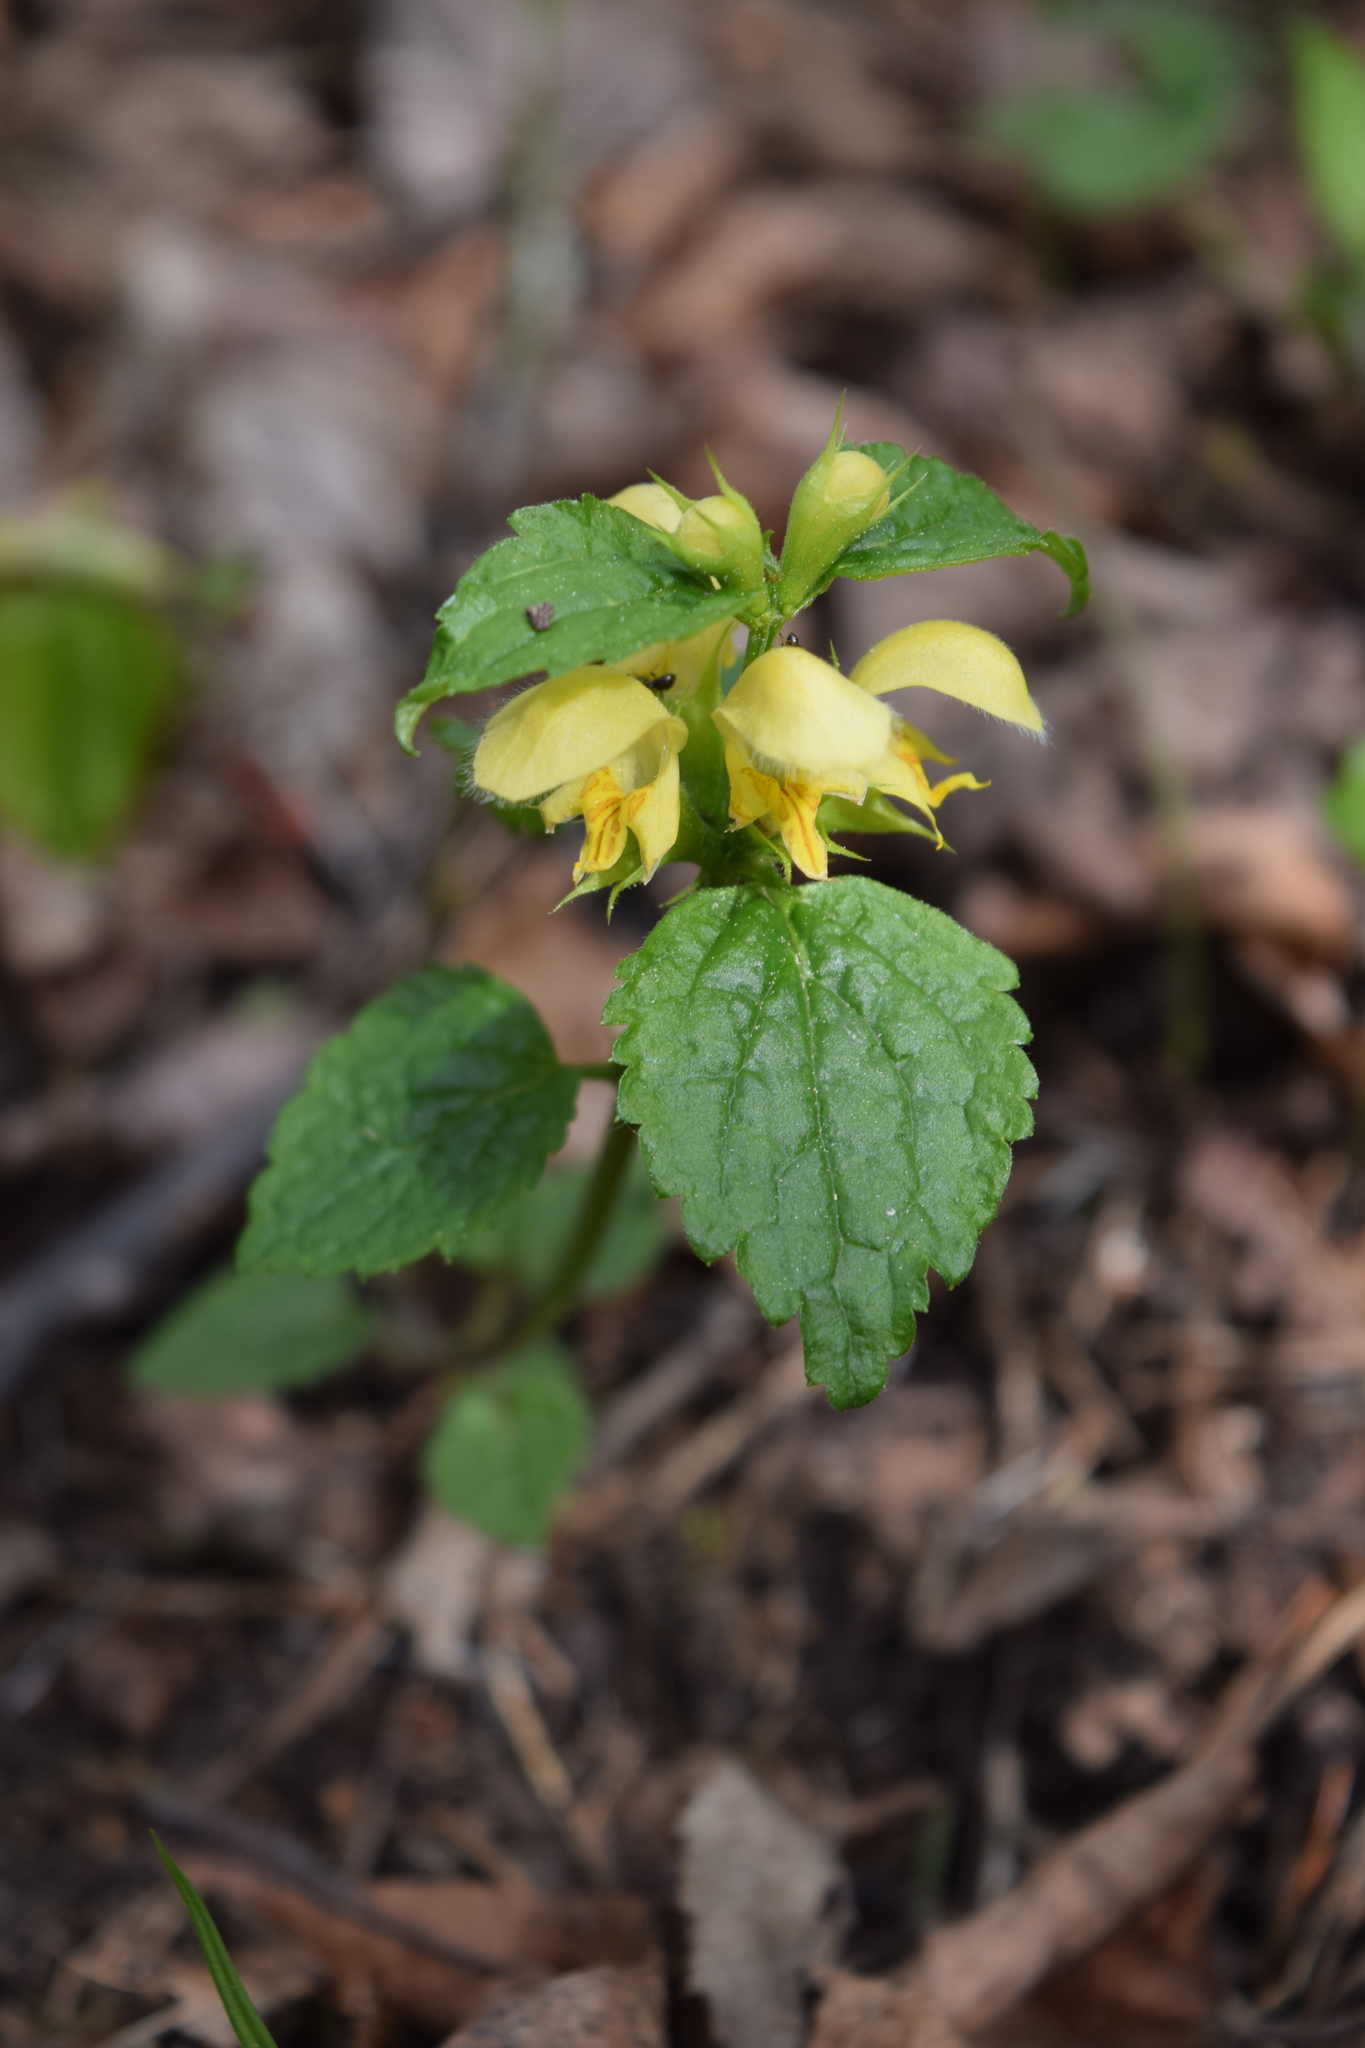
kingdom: Plantae
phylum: Tracheophyta
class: Magnoliopsida
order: Lamiales
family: Lamiaceae
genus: Lamium
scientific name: Lamium galeobdolon
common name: Yellow archangel
